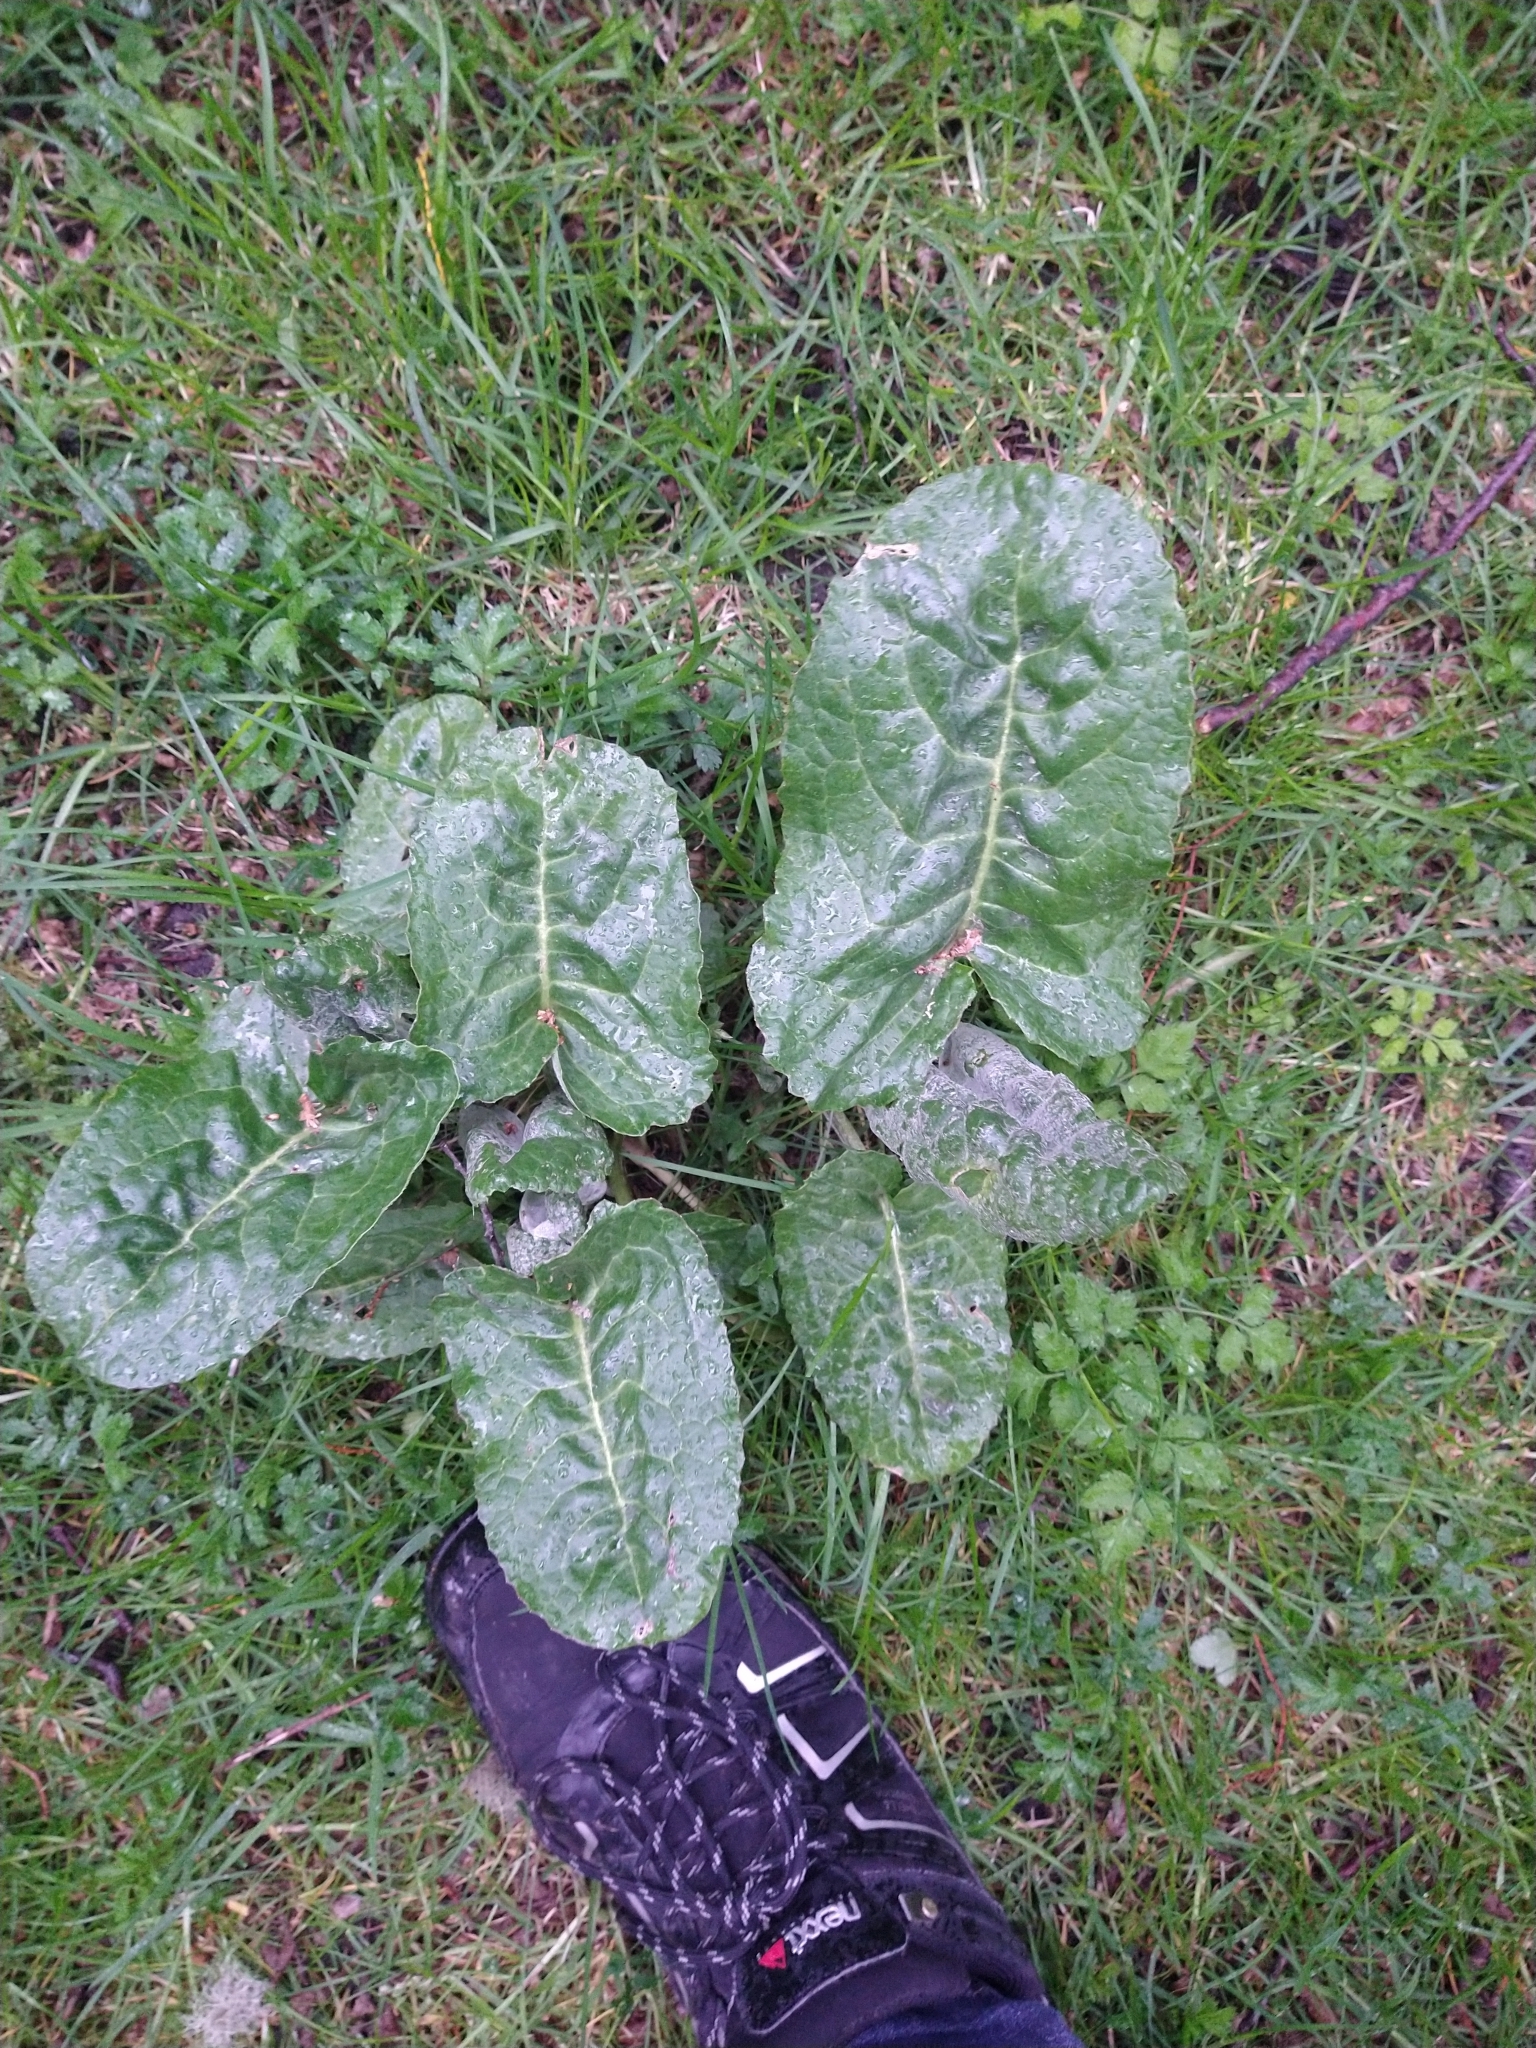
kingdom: Plantae
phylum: Tracheophyta
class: Magnoliopsida
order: Asterales
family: Asteraceae
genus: Senecio
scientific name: Senecio smithii
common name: Magellan ragwort
